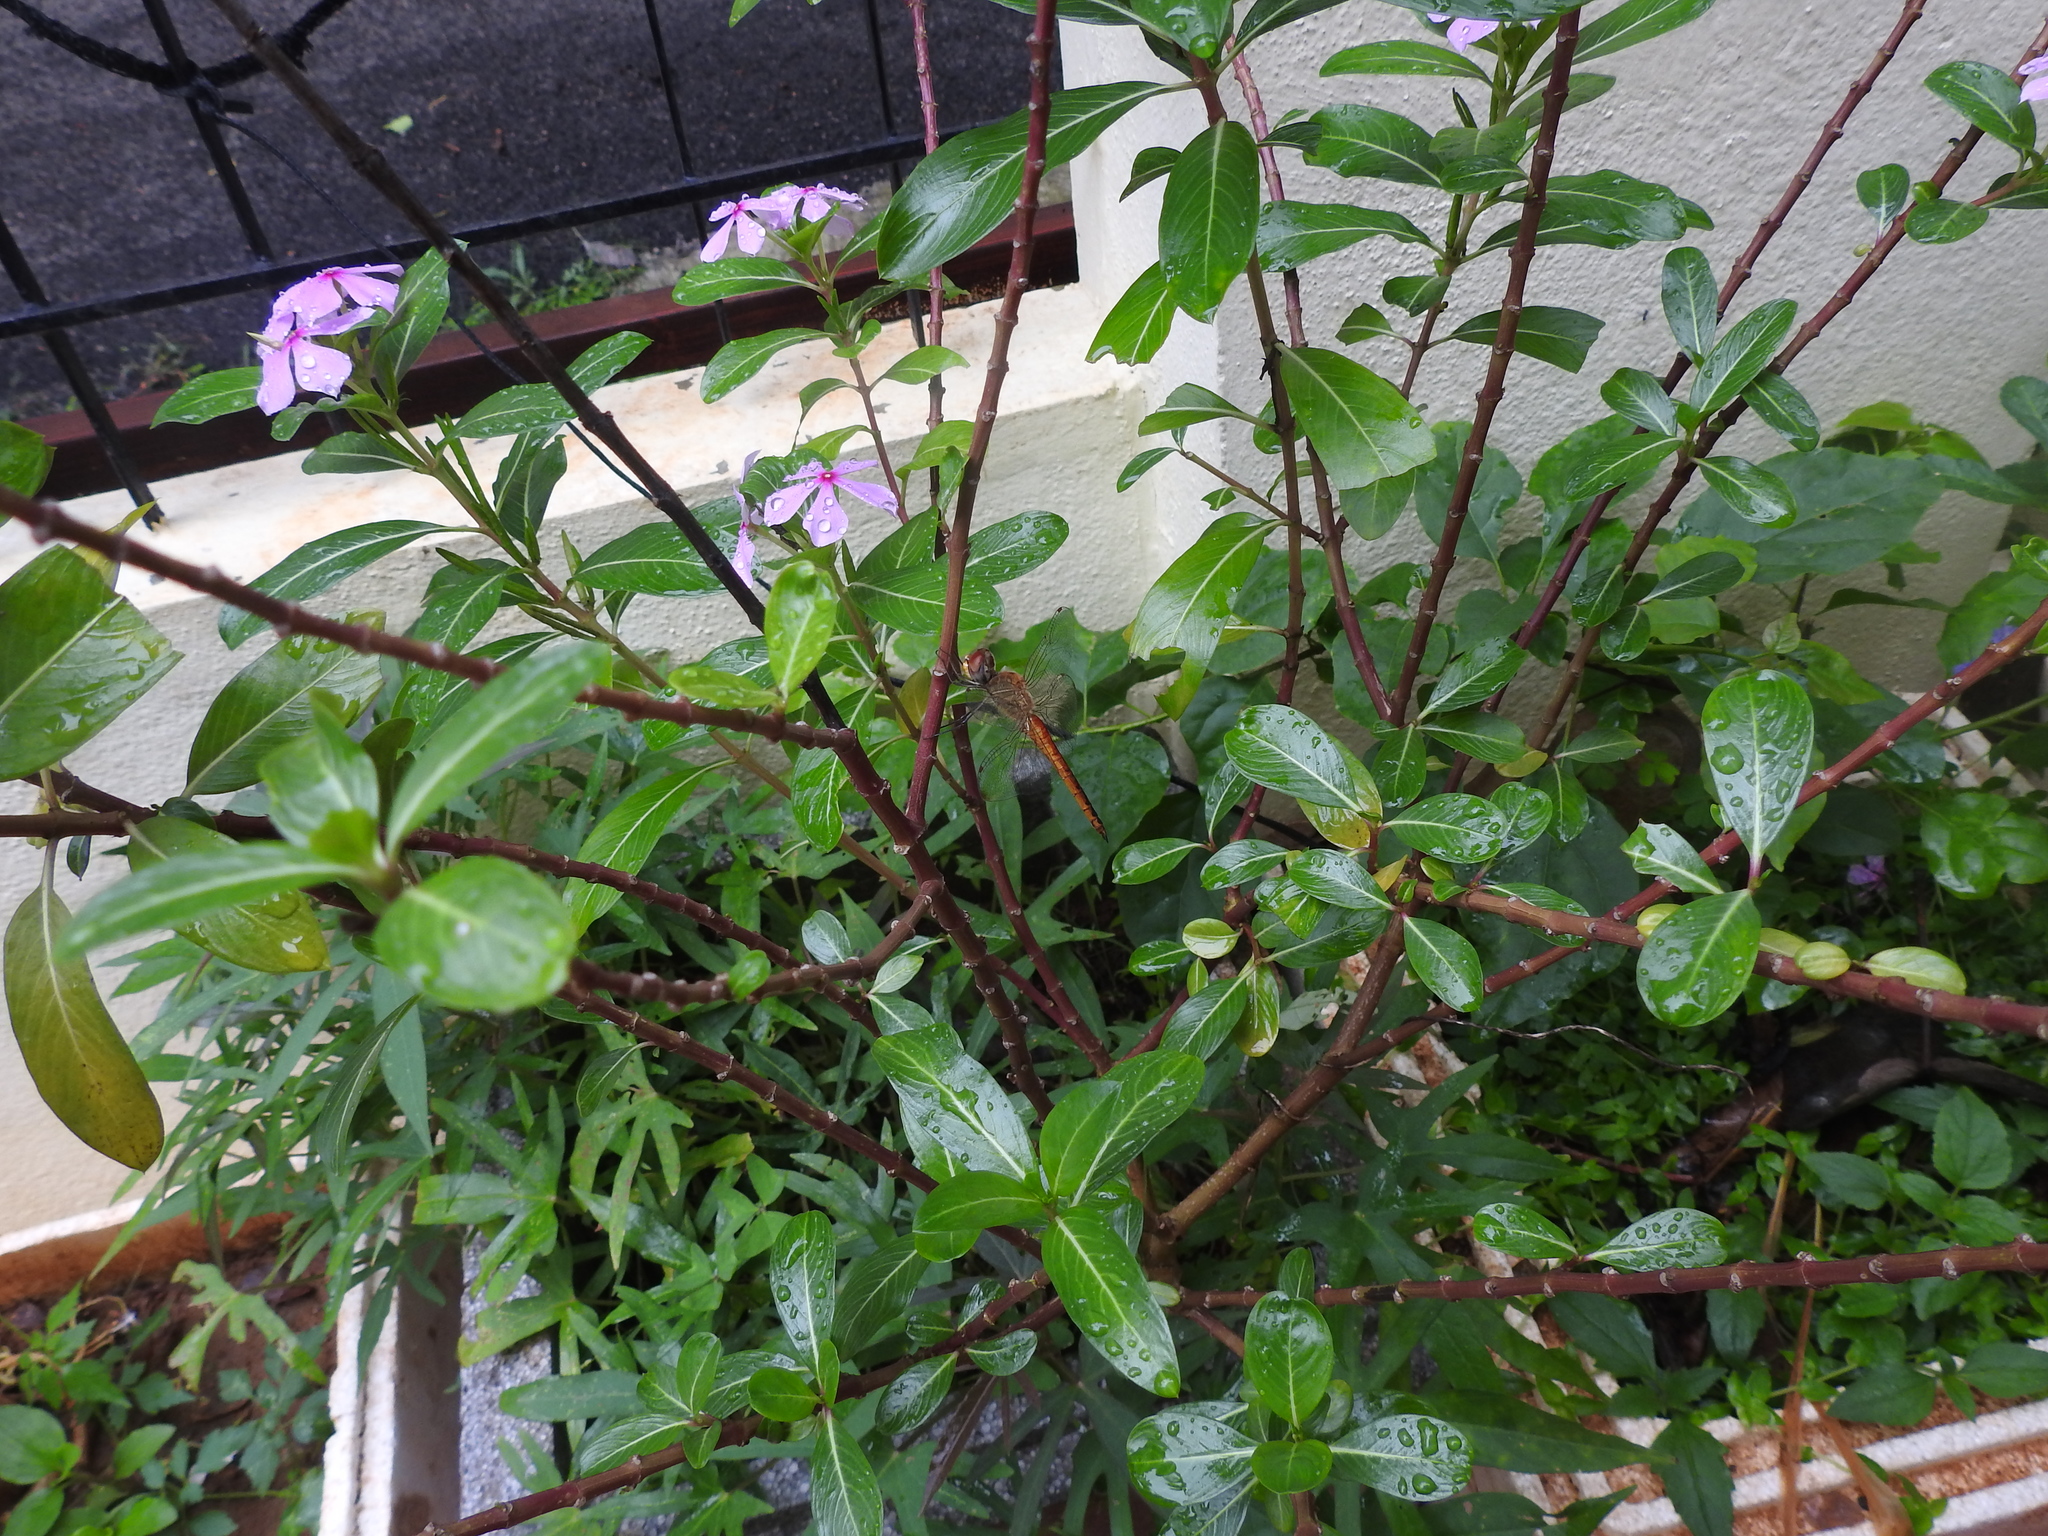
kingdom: Animalia
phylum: Arthropoda
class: Insecta
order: Odonata
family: Libellulidae
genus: Pantala
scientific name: Pantala flavescens
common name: Wandering glider
